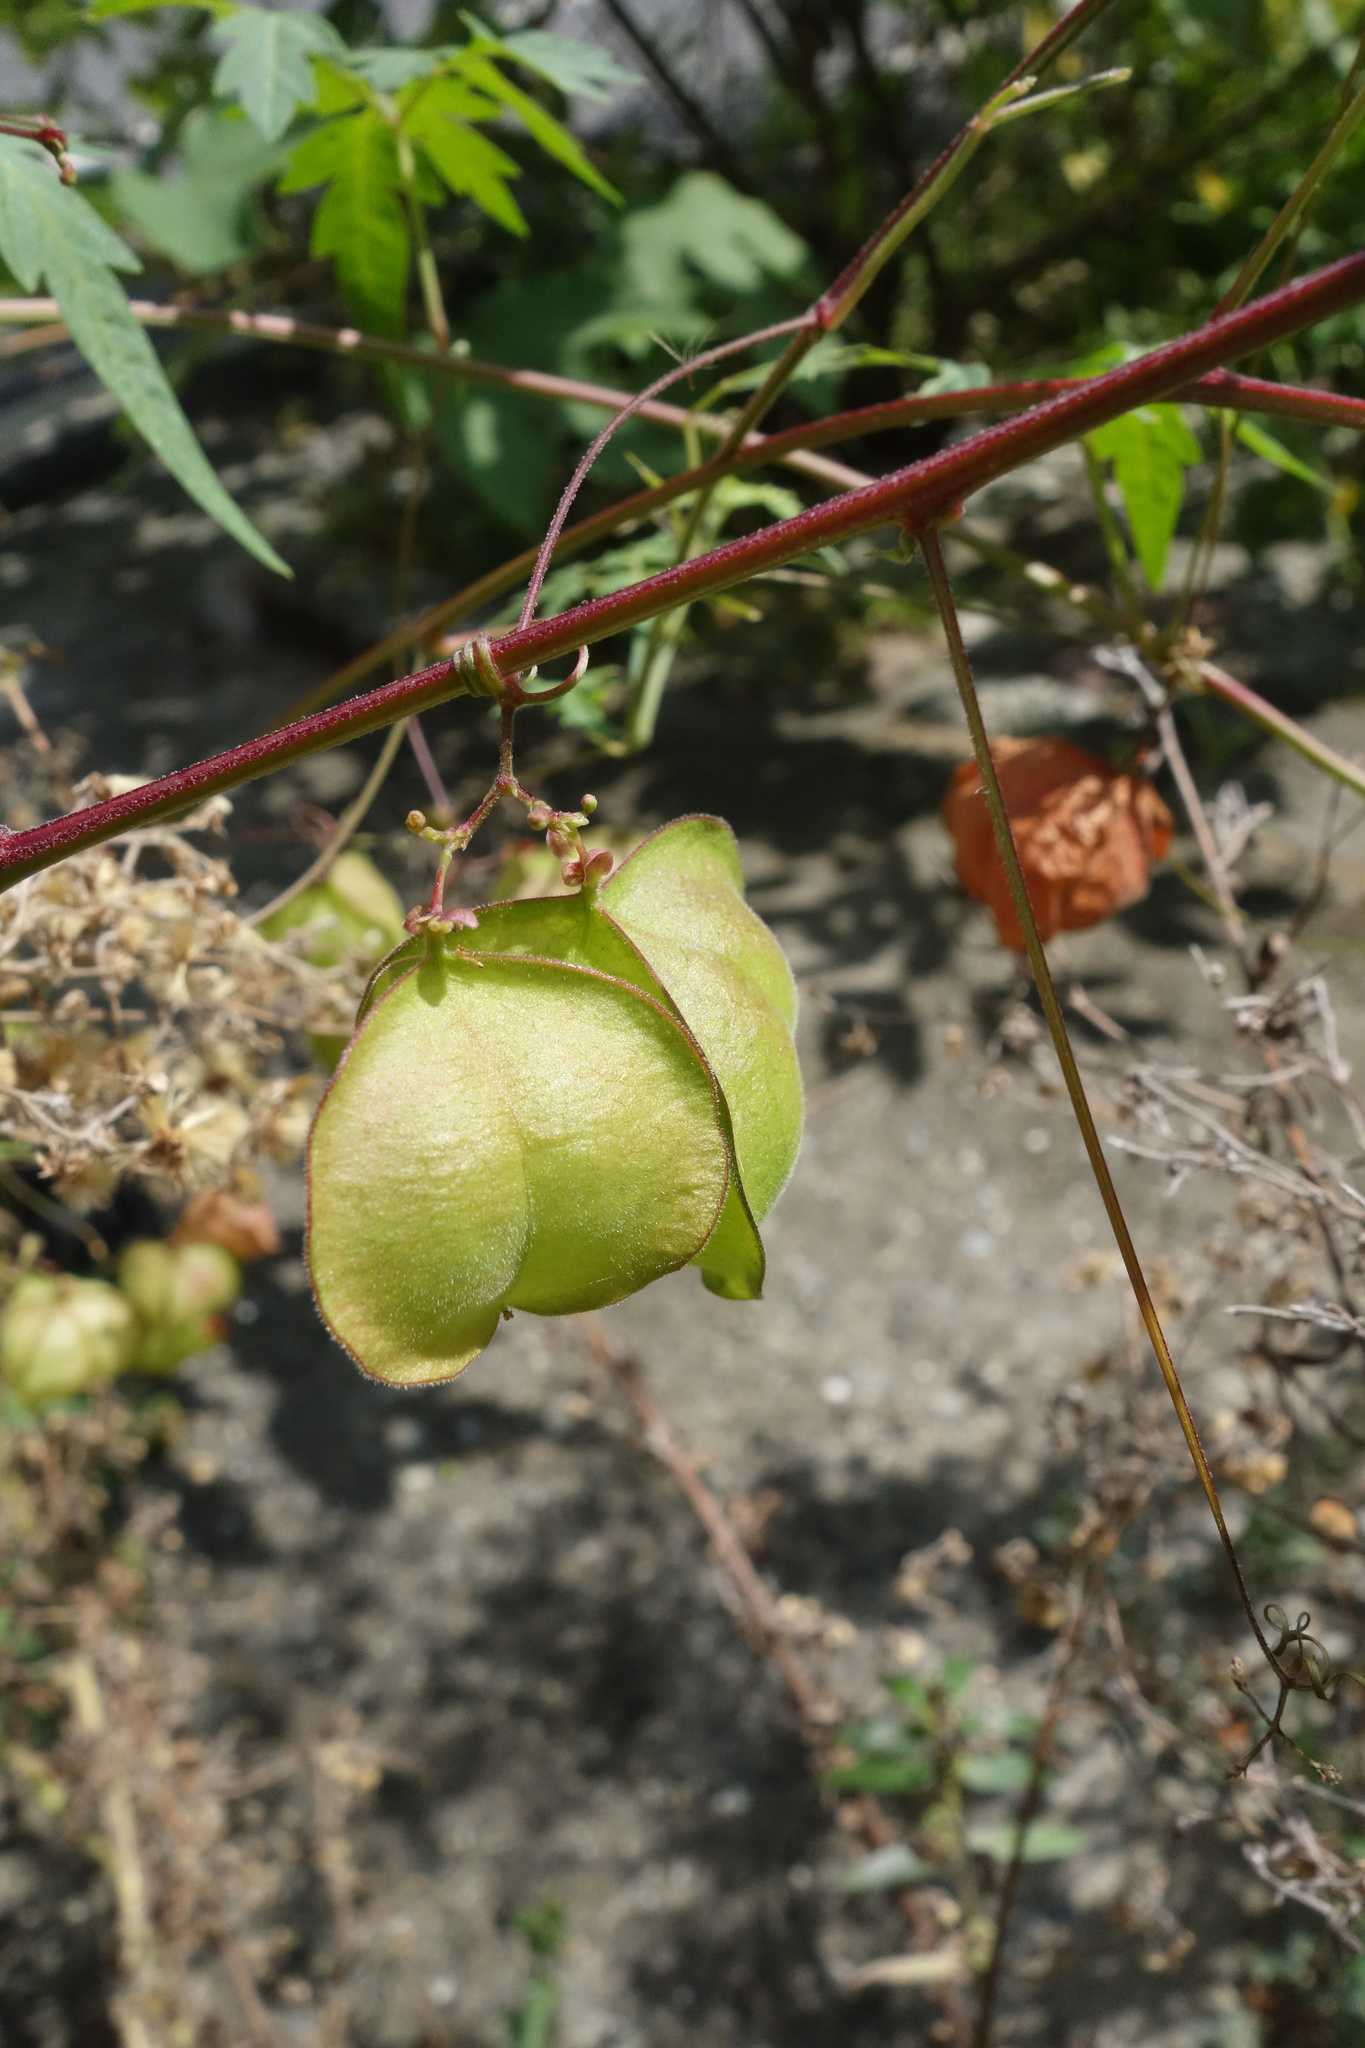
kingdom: Plantae
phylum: Tracheophyta
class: Magnoliopsida
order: Sapindales
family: Sapindaceae
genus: Cardiospermum
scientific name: Cardiospermum halicacabum
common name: Balloon vine
